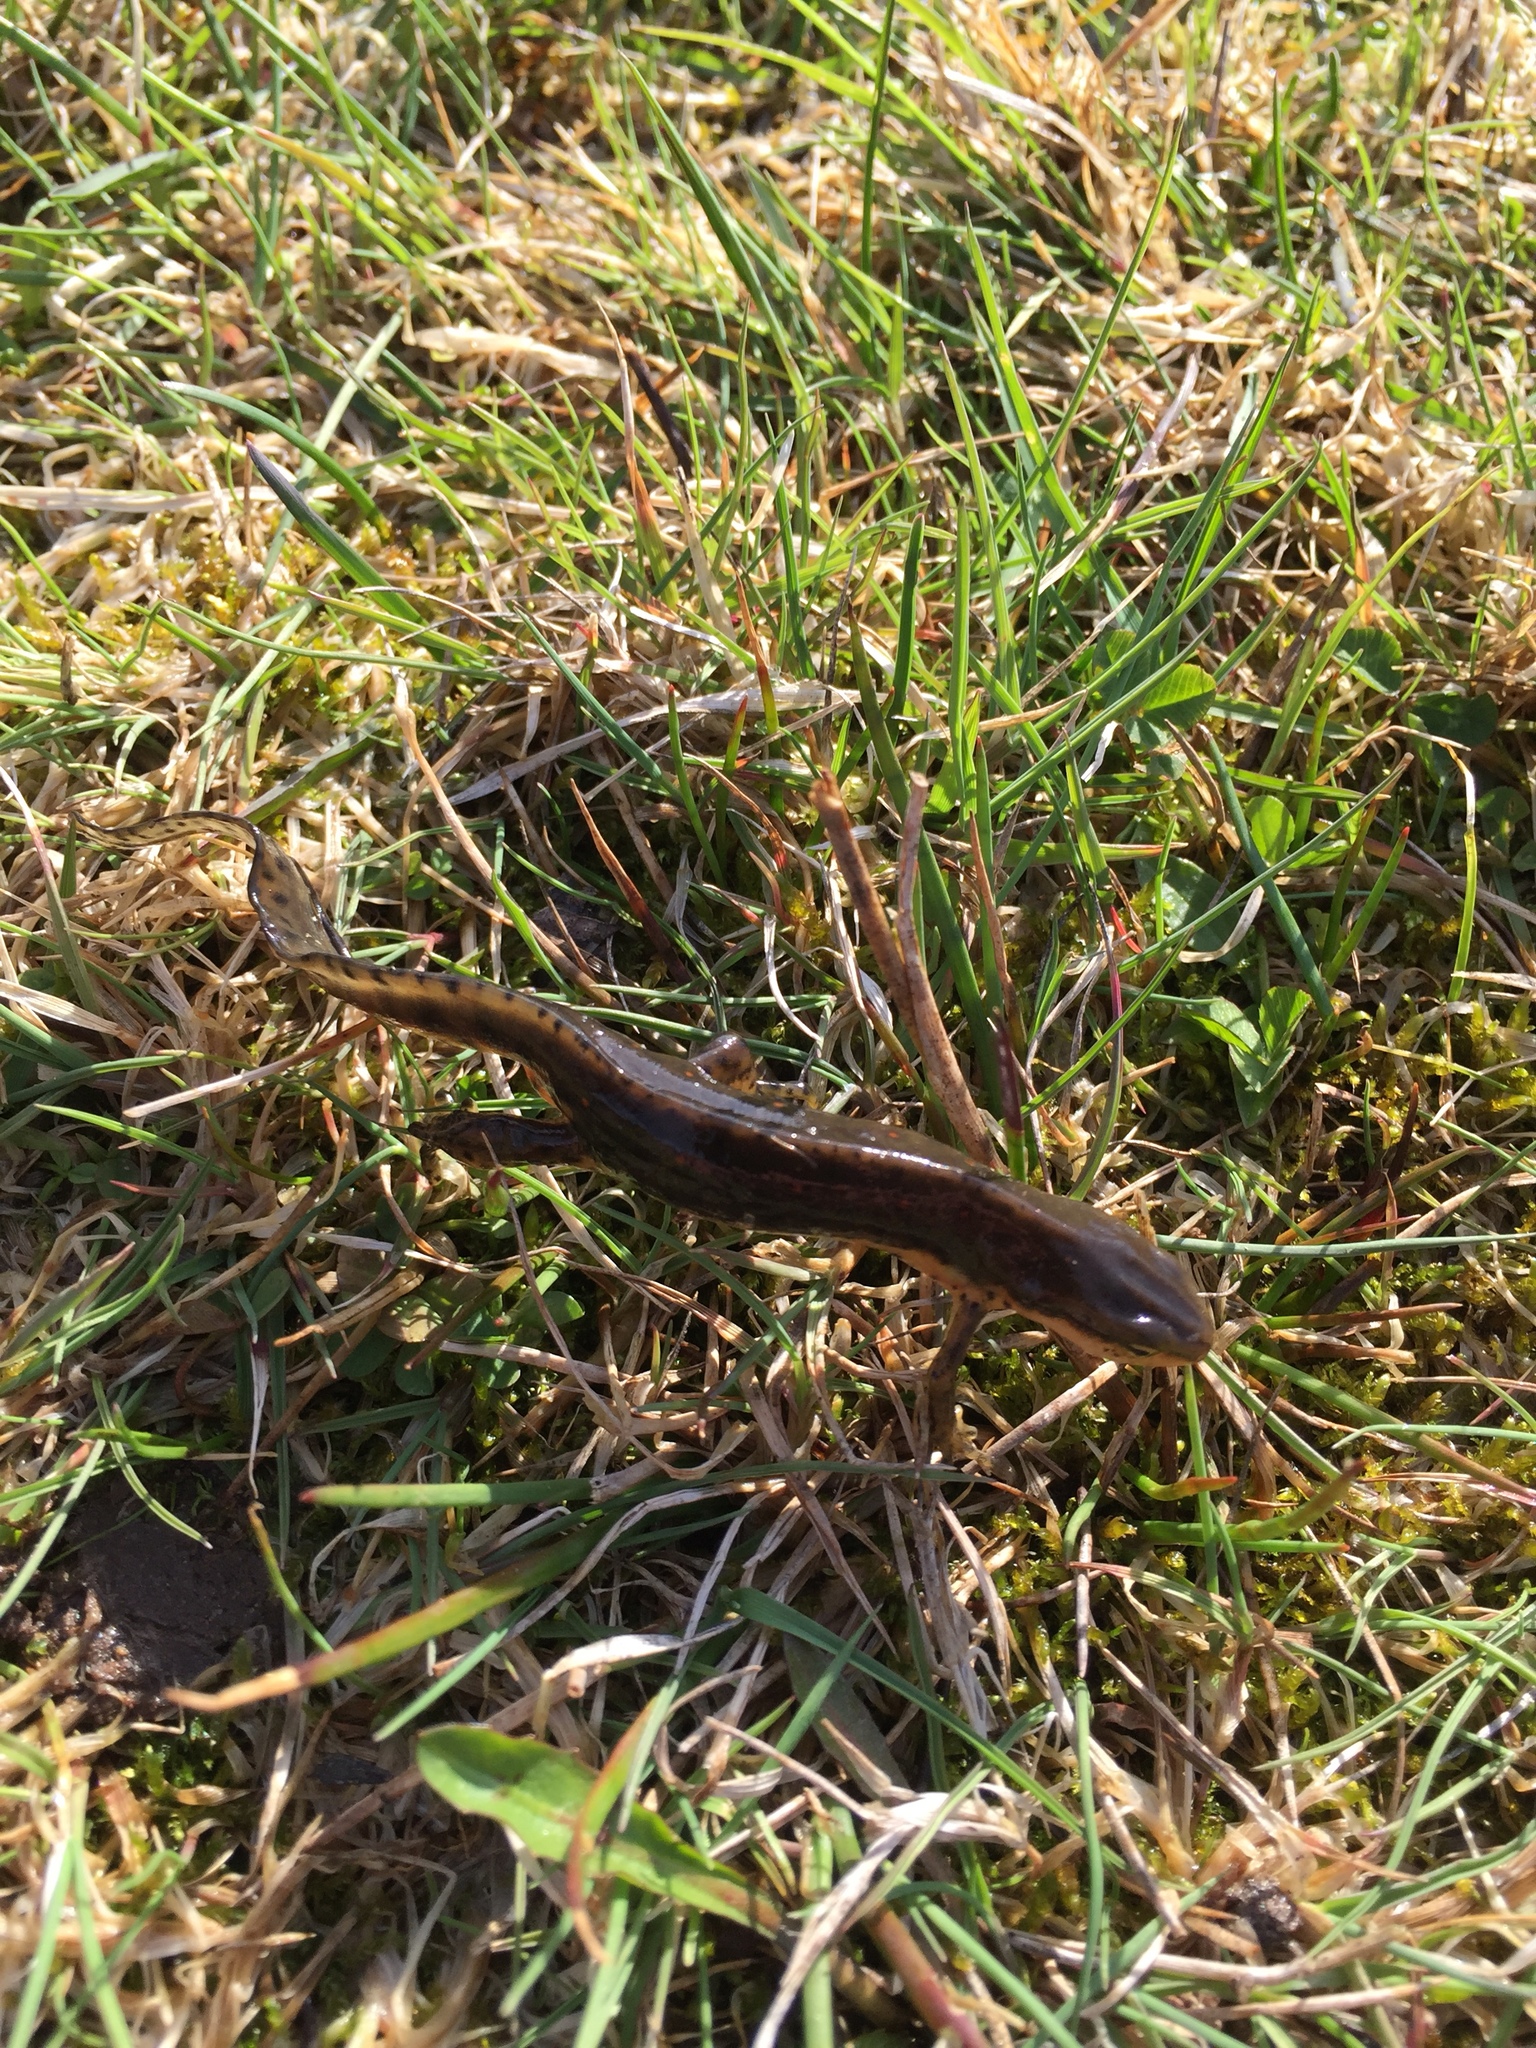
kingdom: Animalia
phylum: Chordata
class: Amphibia
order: Caudata
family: Salamandridae
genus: Notophthalmus
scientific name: Notophthalmus viridescens
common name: Eastern newt
